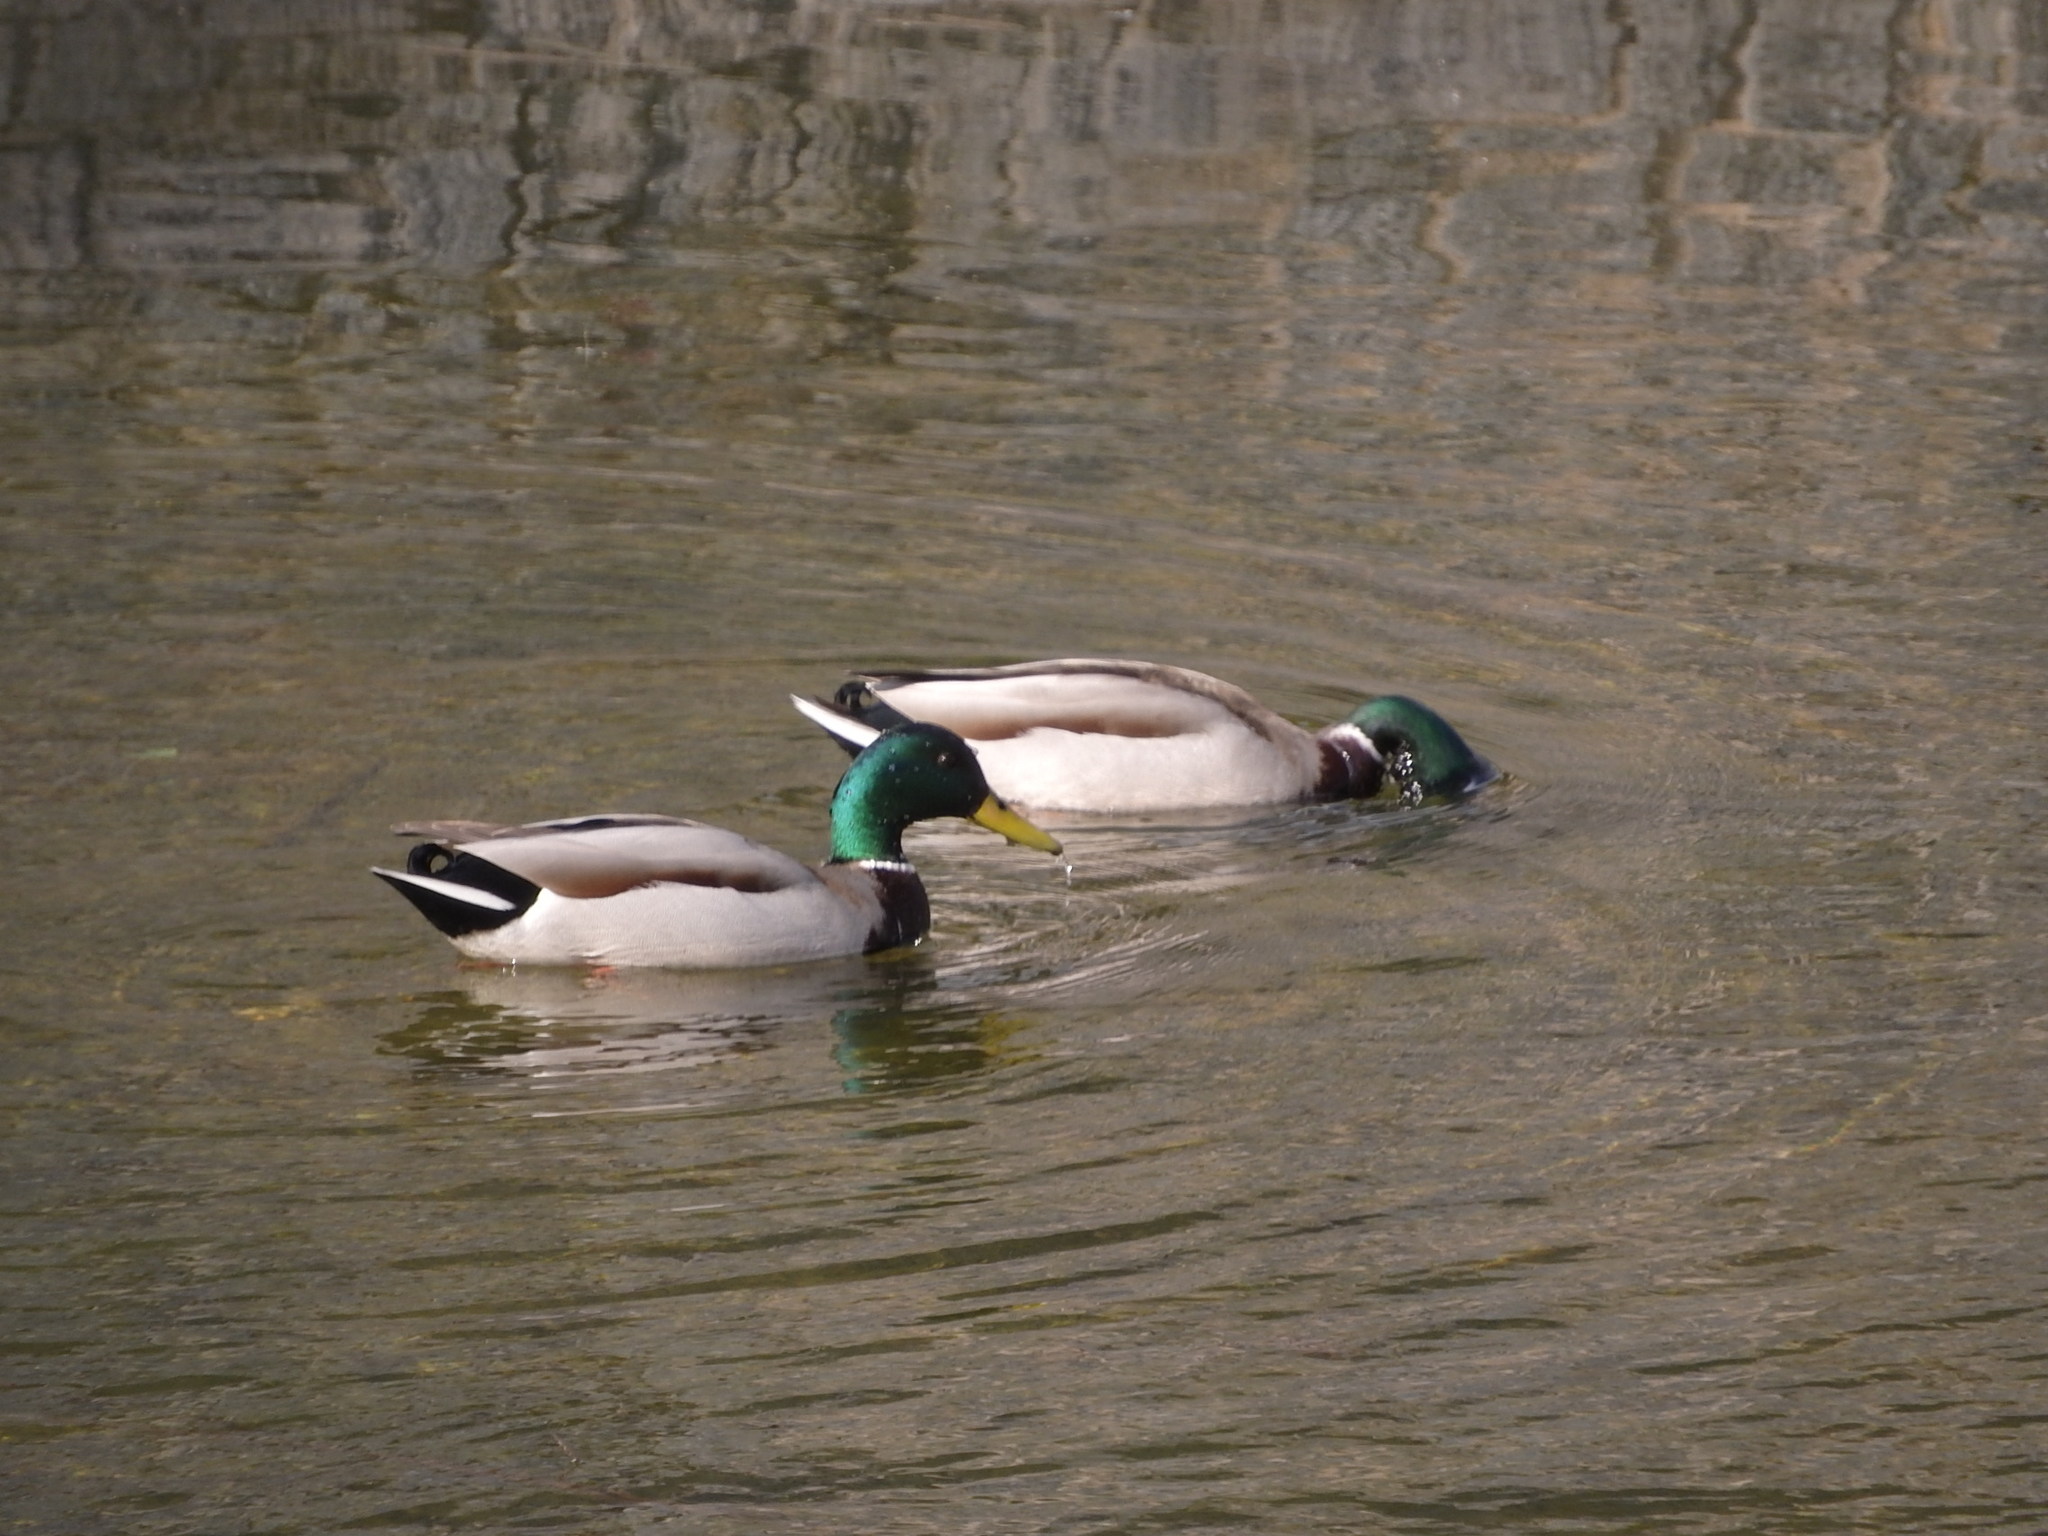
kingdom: Animalia
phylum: Chordata
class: Aves
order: Anseriformes
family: Anatidae
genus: Anas
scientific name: Anas platyrhynchos
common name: Mallard
